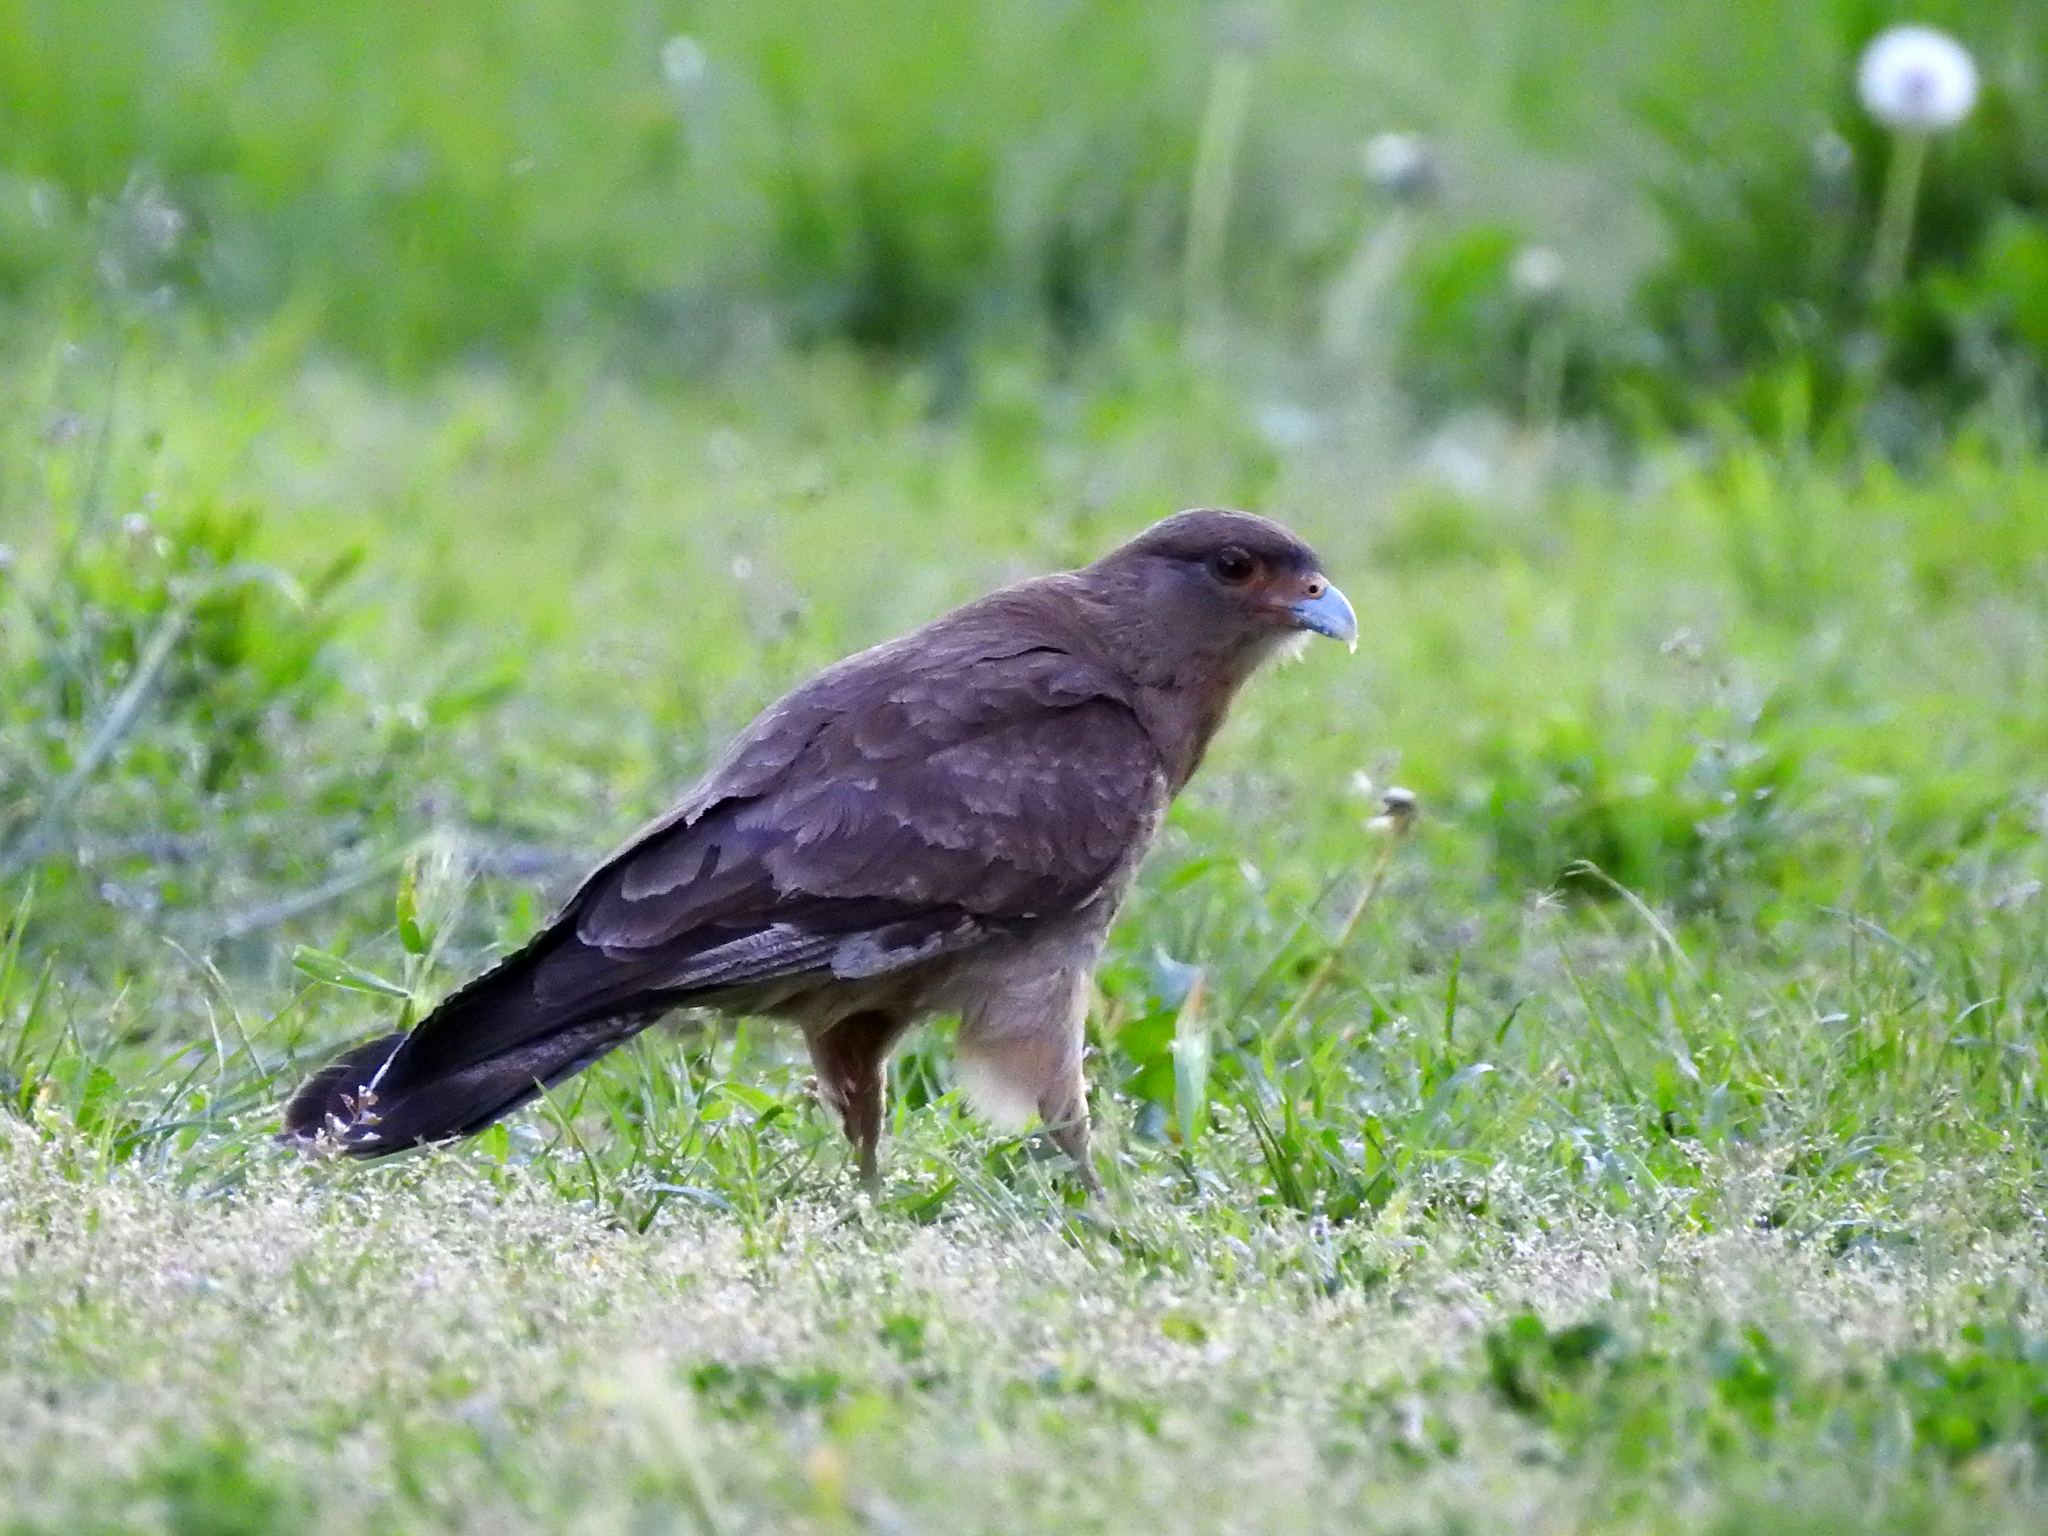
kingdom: Animalia
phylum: Chordata
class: Aves
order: Falconiformes
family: Falconidae
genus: Daptrius
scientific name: Daptrius
